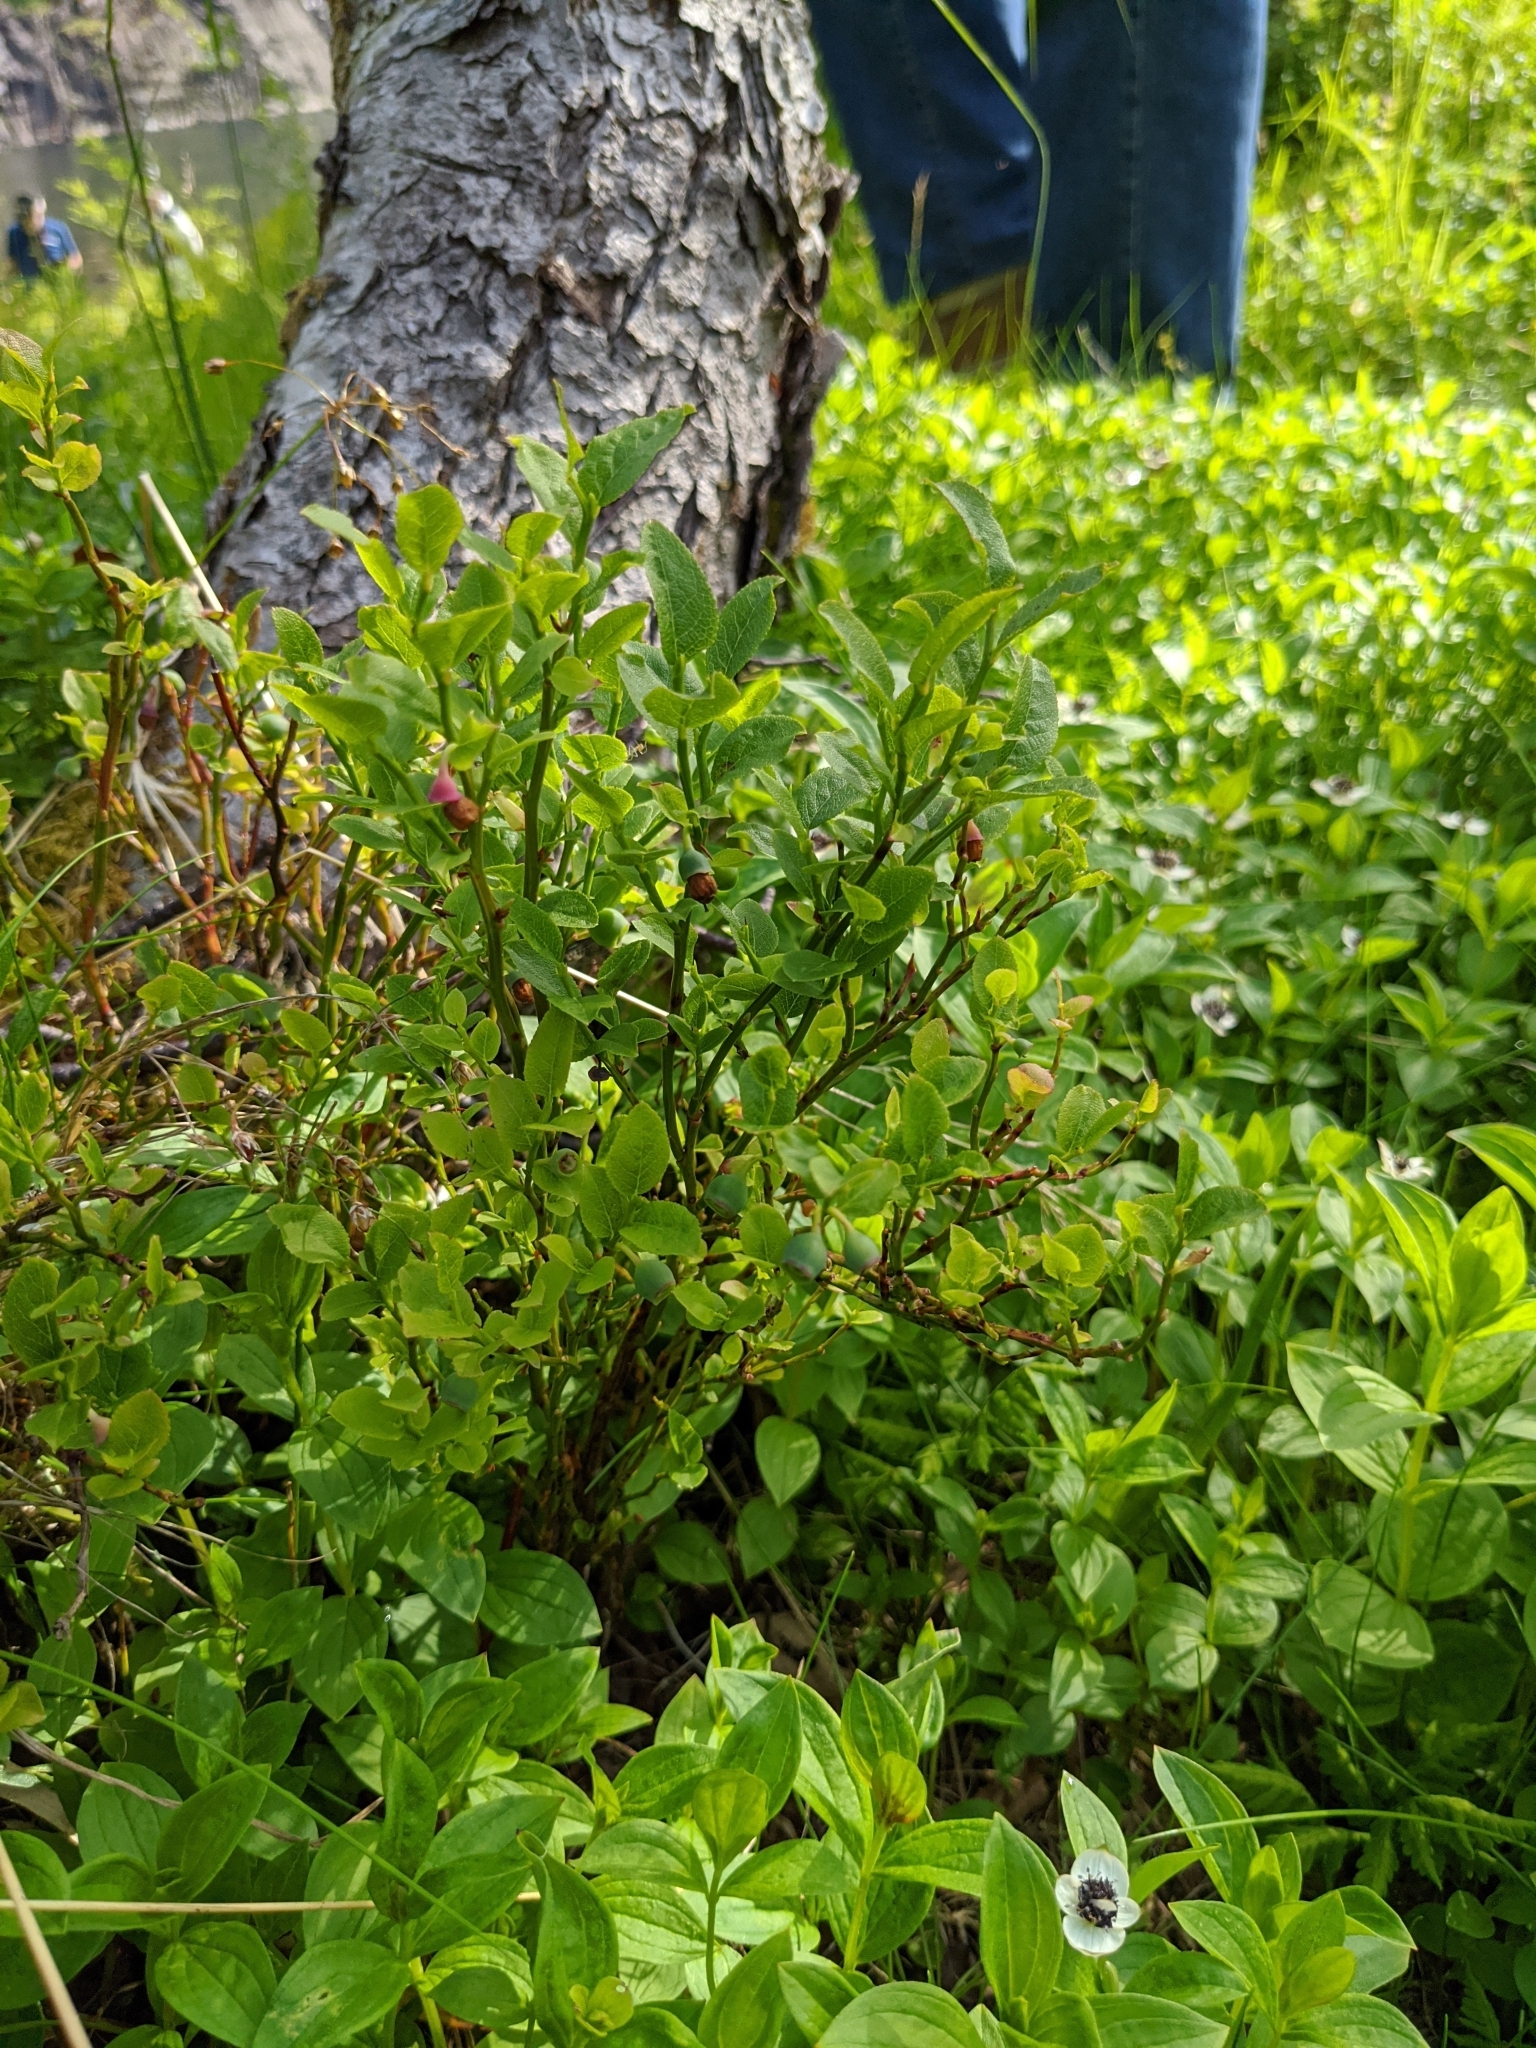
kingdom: Plantae
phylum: Tracheophyta
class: Magnoliopsida
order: Ericales
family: Ericaceae
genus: Vaccinium
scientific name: Vaccinium myrtillus
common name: Bilberry
